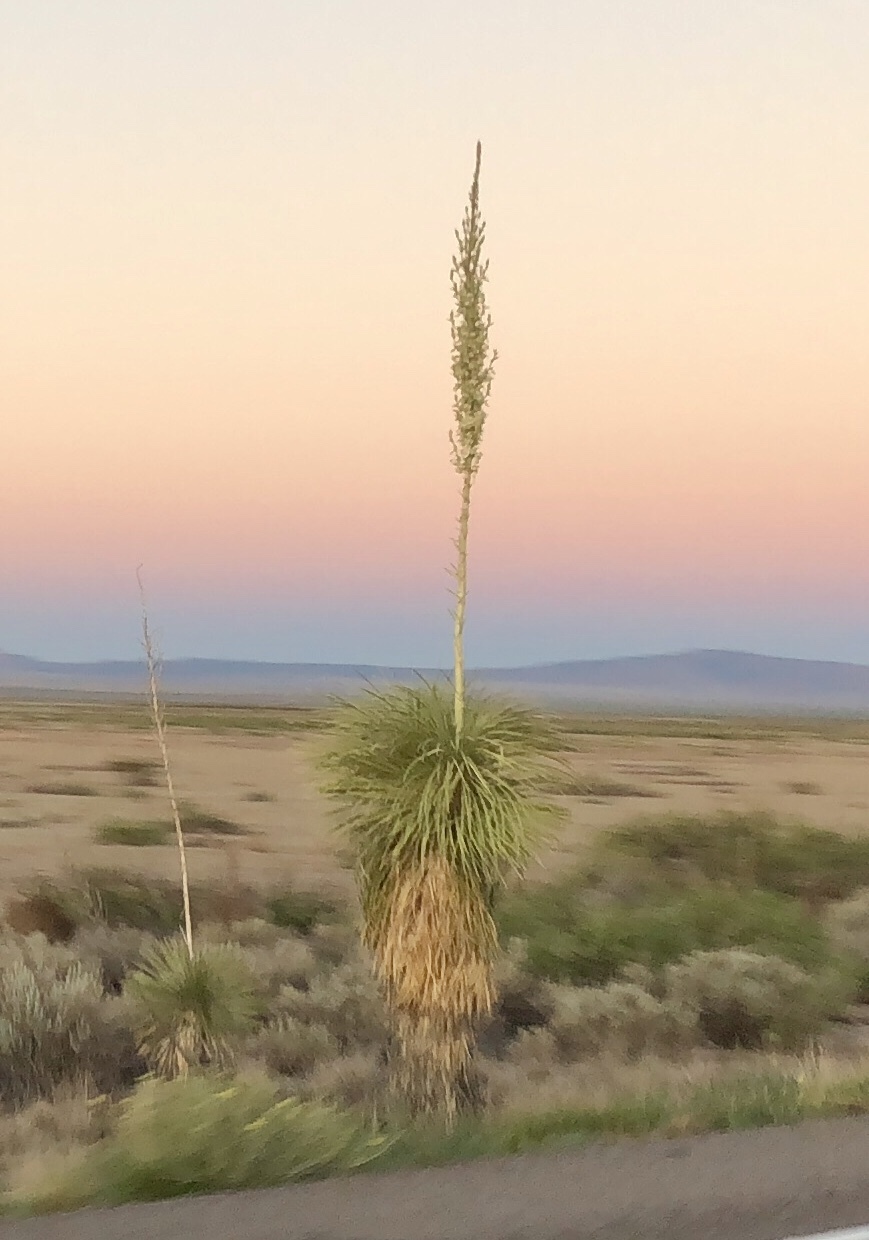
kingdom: Plantae
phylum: Tracheophyta
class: Liliopsida
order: Asparagales
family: Asparagaceae
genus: Yucca
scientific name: Yucca elata
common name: Palmella
